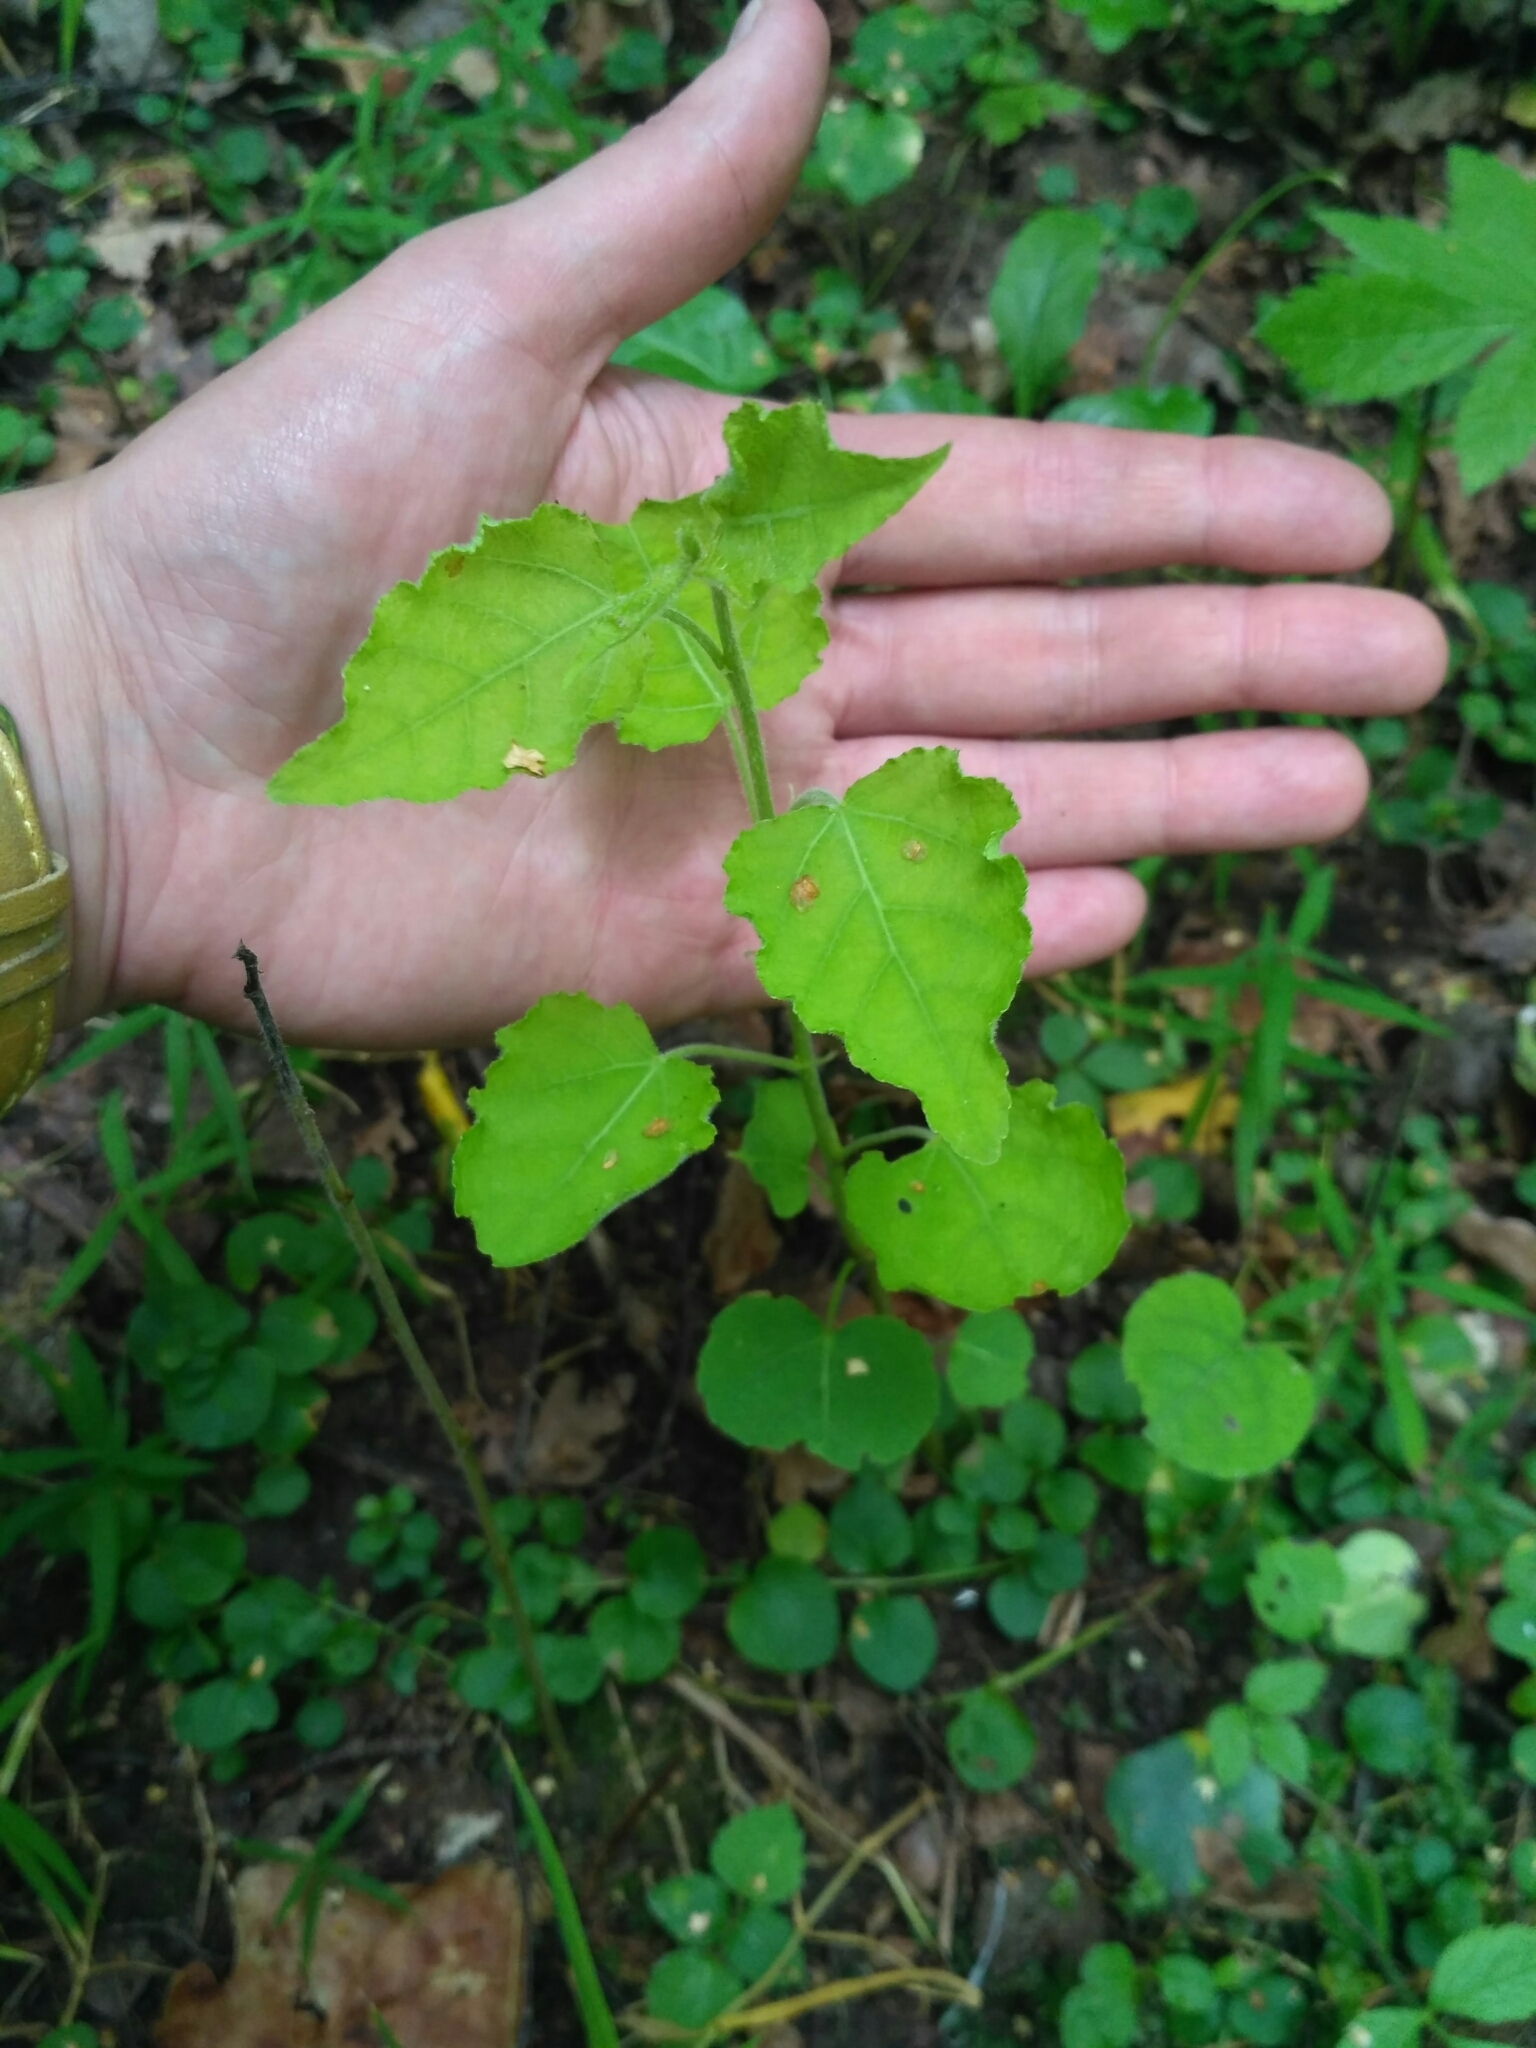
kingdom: Plantae
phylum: Tracheophyta
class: Magnoliopsida
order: Malpighiales
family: Salicaceae
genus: Populus
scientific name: Populus tremula
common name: European aspen
